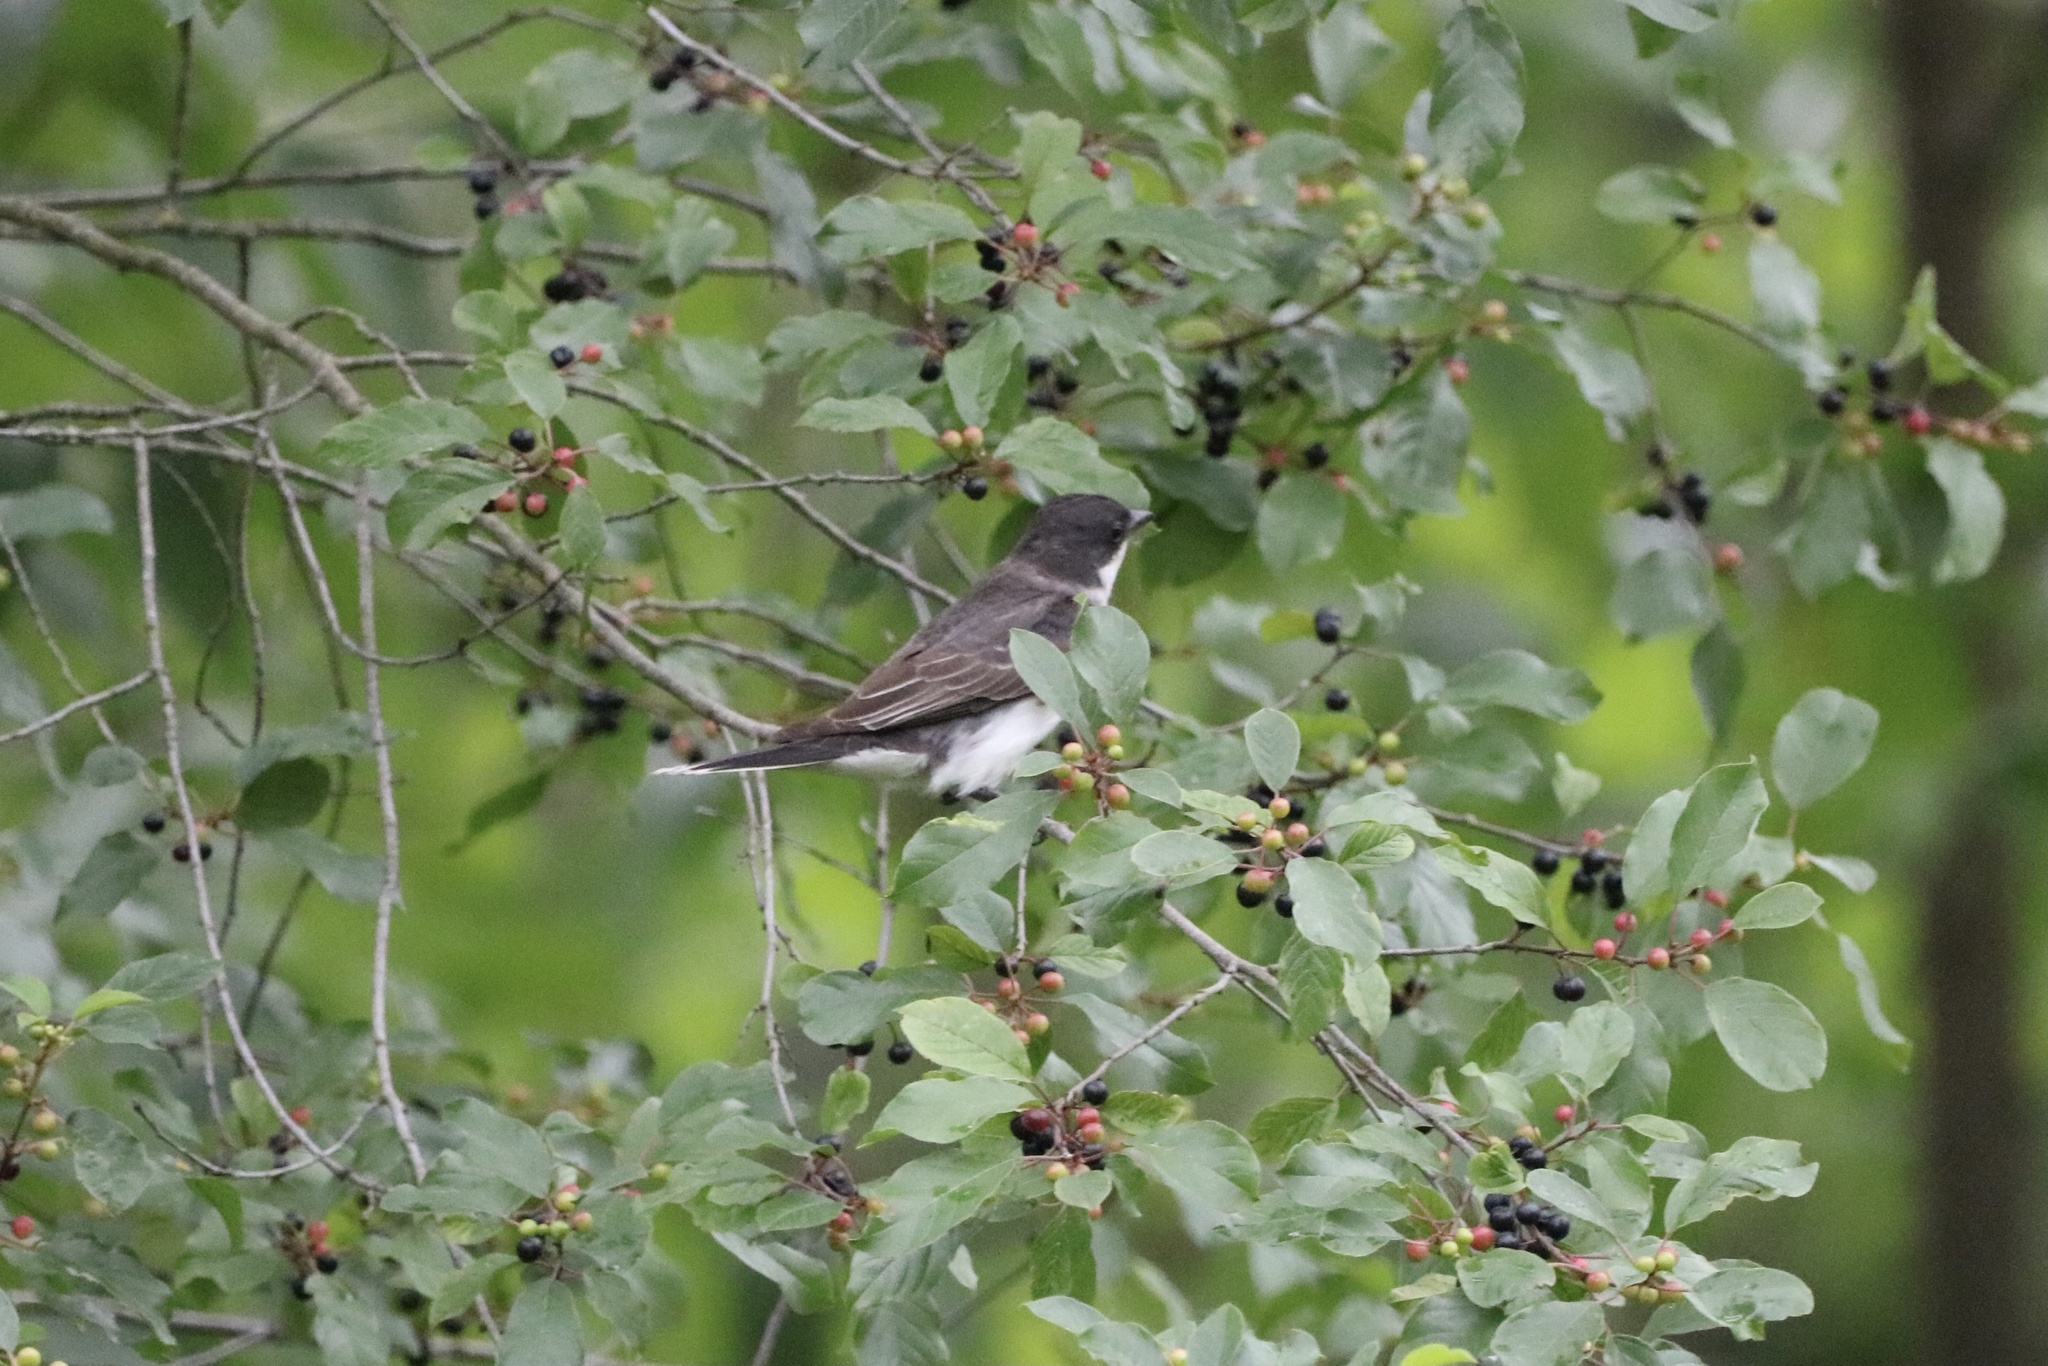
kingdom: Animalia
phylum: Chordata
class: Aves
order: Passeriformes
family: Tyrannidae
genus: Tyrannus
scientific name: Tyrannus tyrannus
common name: Eastern kingbird
